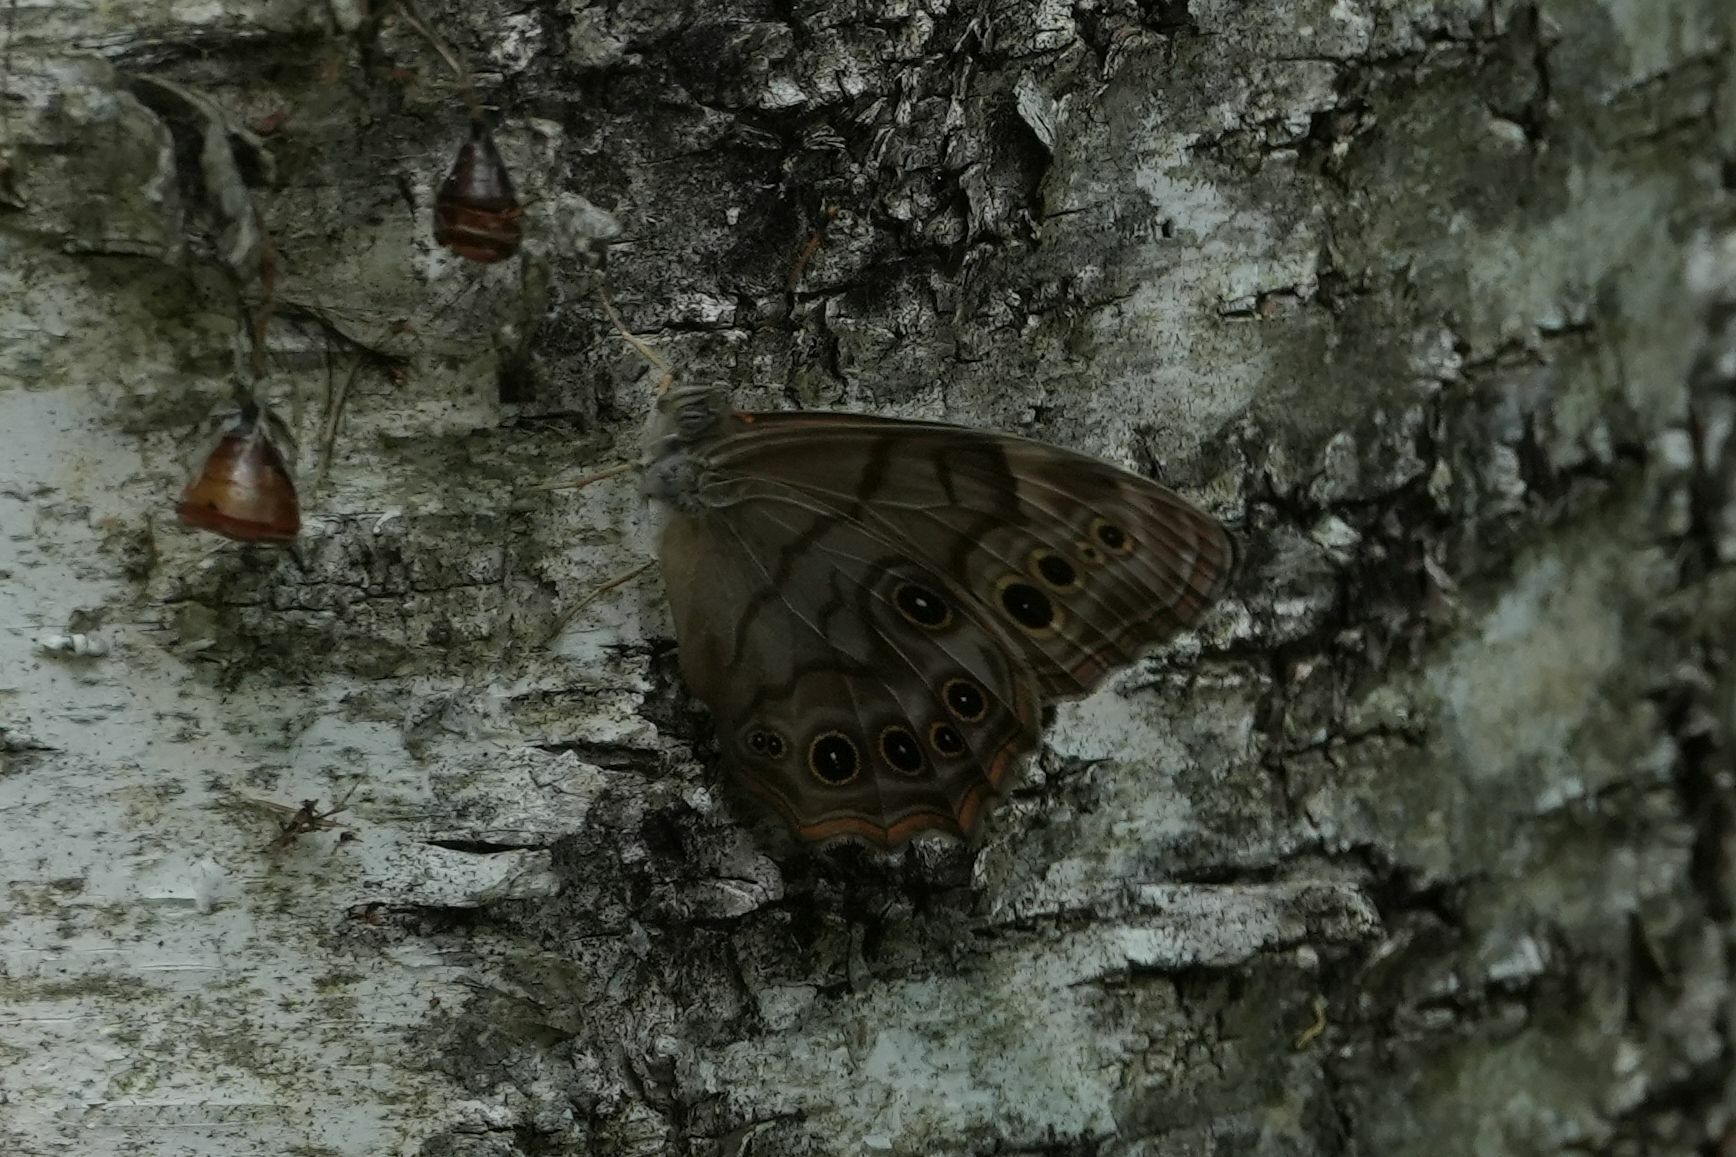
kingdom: Animalia
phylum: Arthropoda
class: Insecta
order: Lepidoptera
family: Nymphalidae
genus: Lethe
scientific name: Lethe anthedon
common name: Northern pearly-eye
